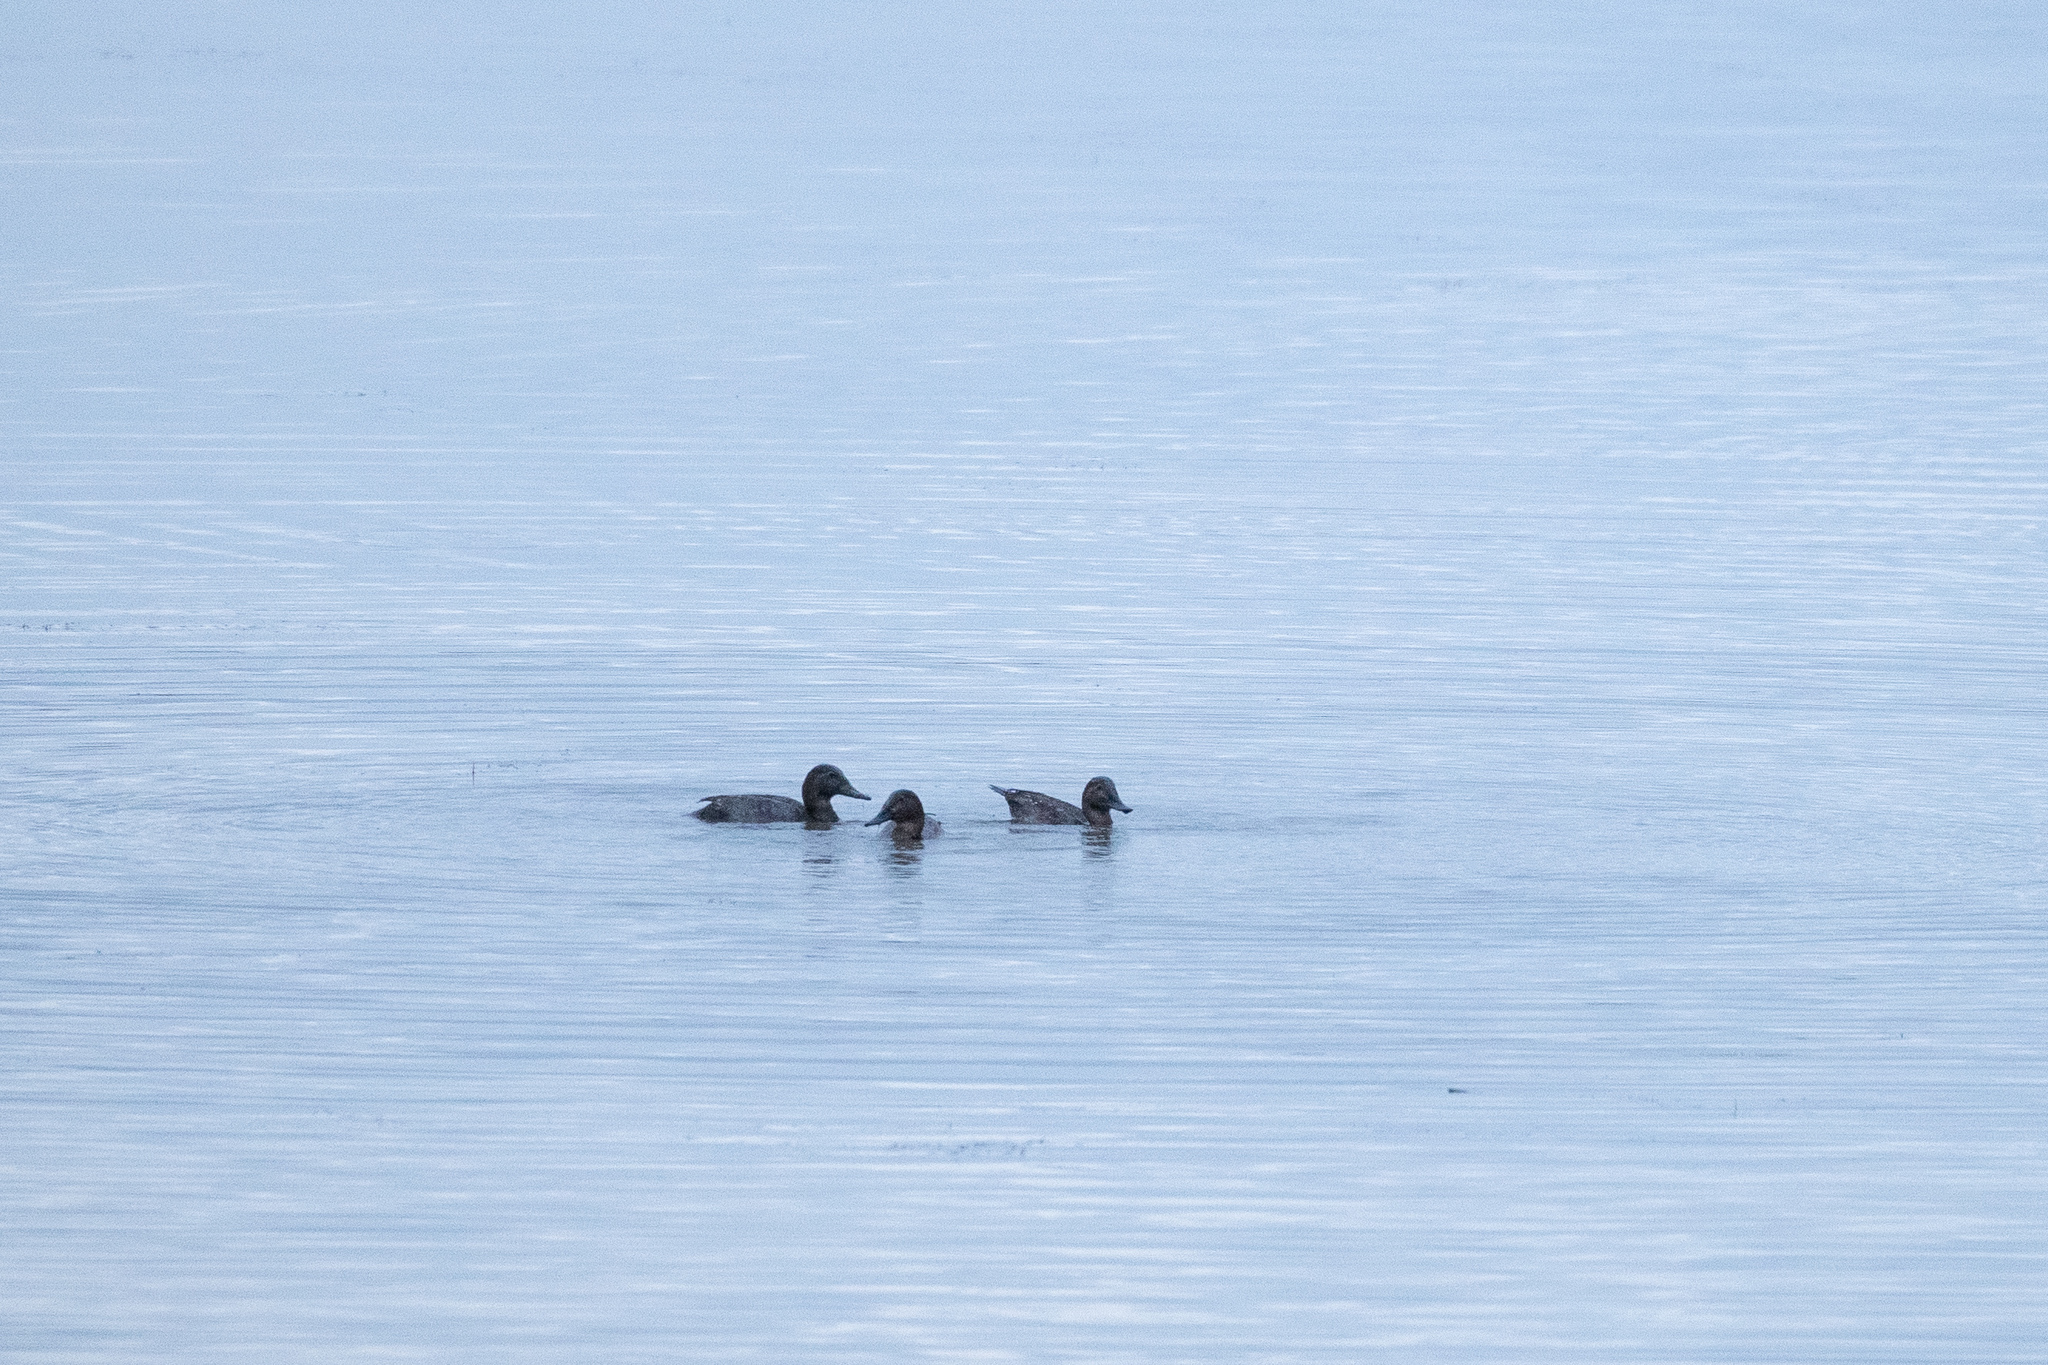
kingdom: Animalia
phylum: Chordata
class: Aves
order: Anseriformes
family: Anatidae
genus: Aythya
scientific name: Aythya ferina
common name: Common pochard
